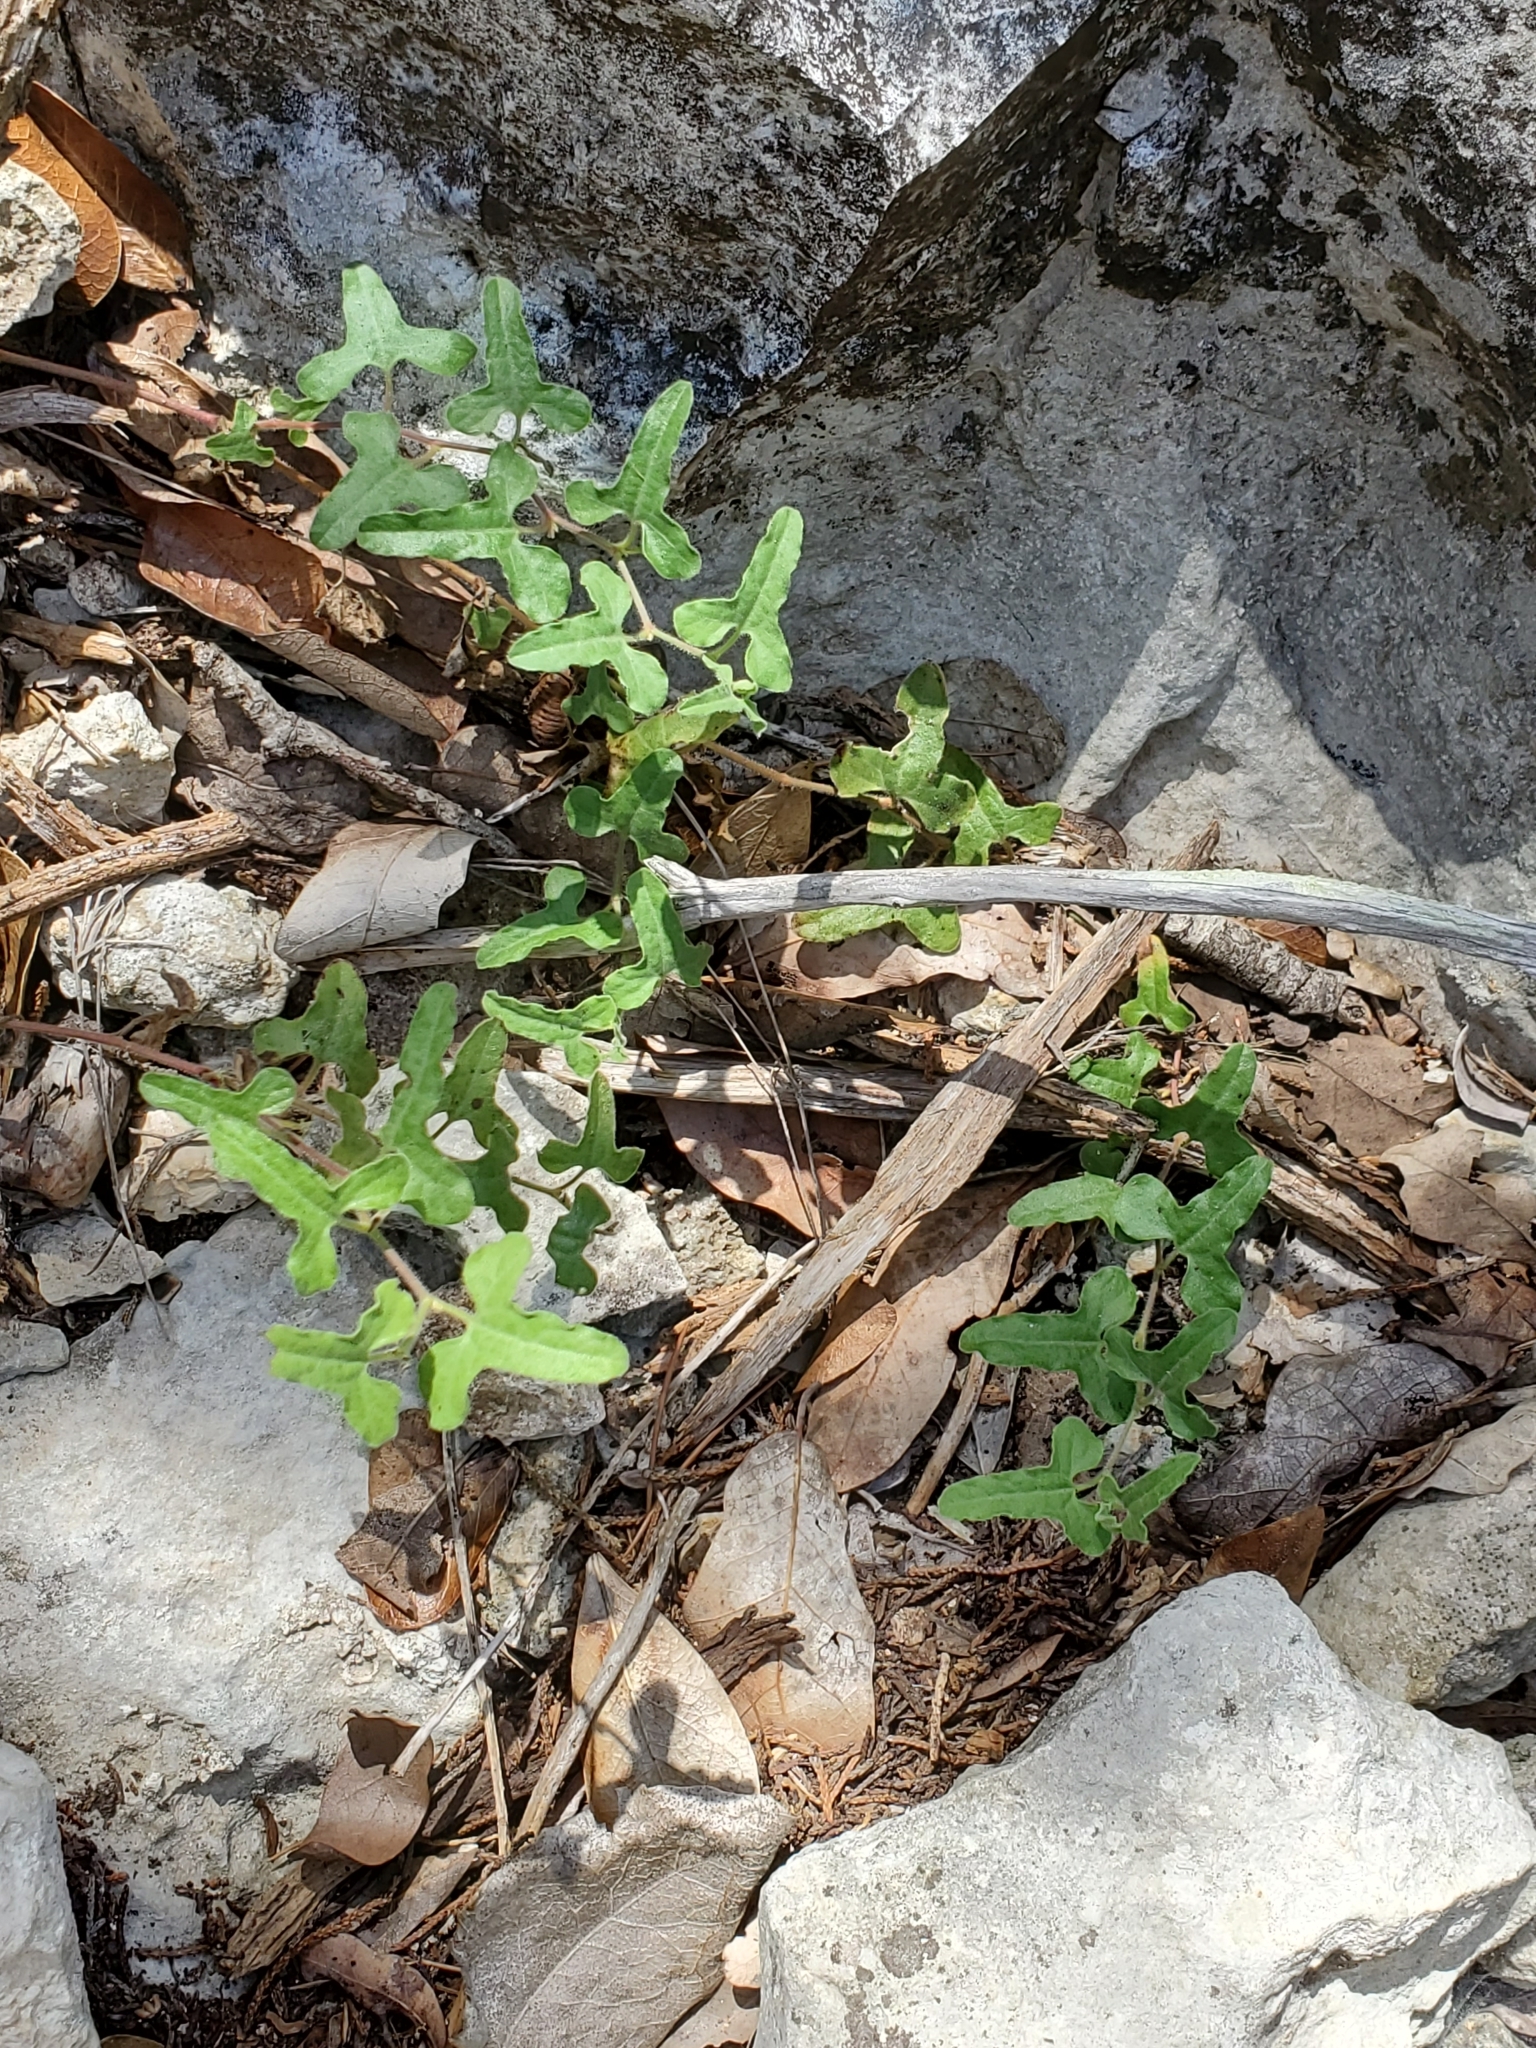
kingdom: Plantae
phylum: Tracheophyta
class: Magnoliopsida
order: Piperales
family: Aristolochiaceae
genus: Aristolochia
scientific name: Aristolochia coryi
